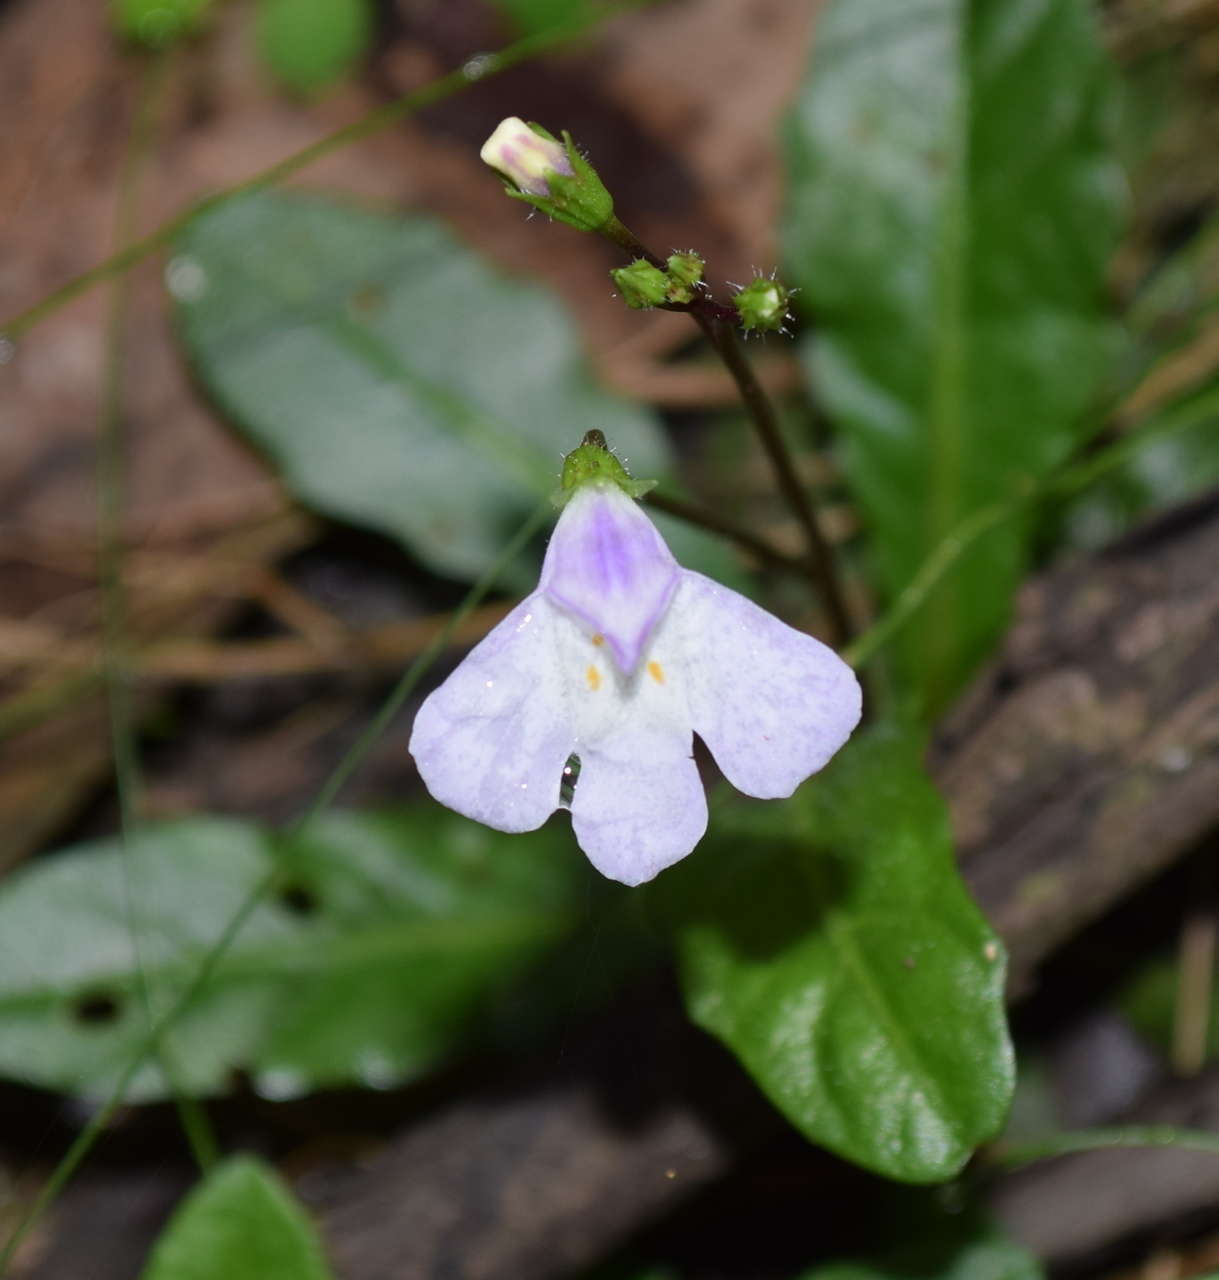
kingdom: Plantae
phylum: Tracheophyta
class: Magnoliopsida
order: Lamiales
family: Mazaceae
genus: Mazus
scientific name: Mazus pumilio
